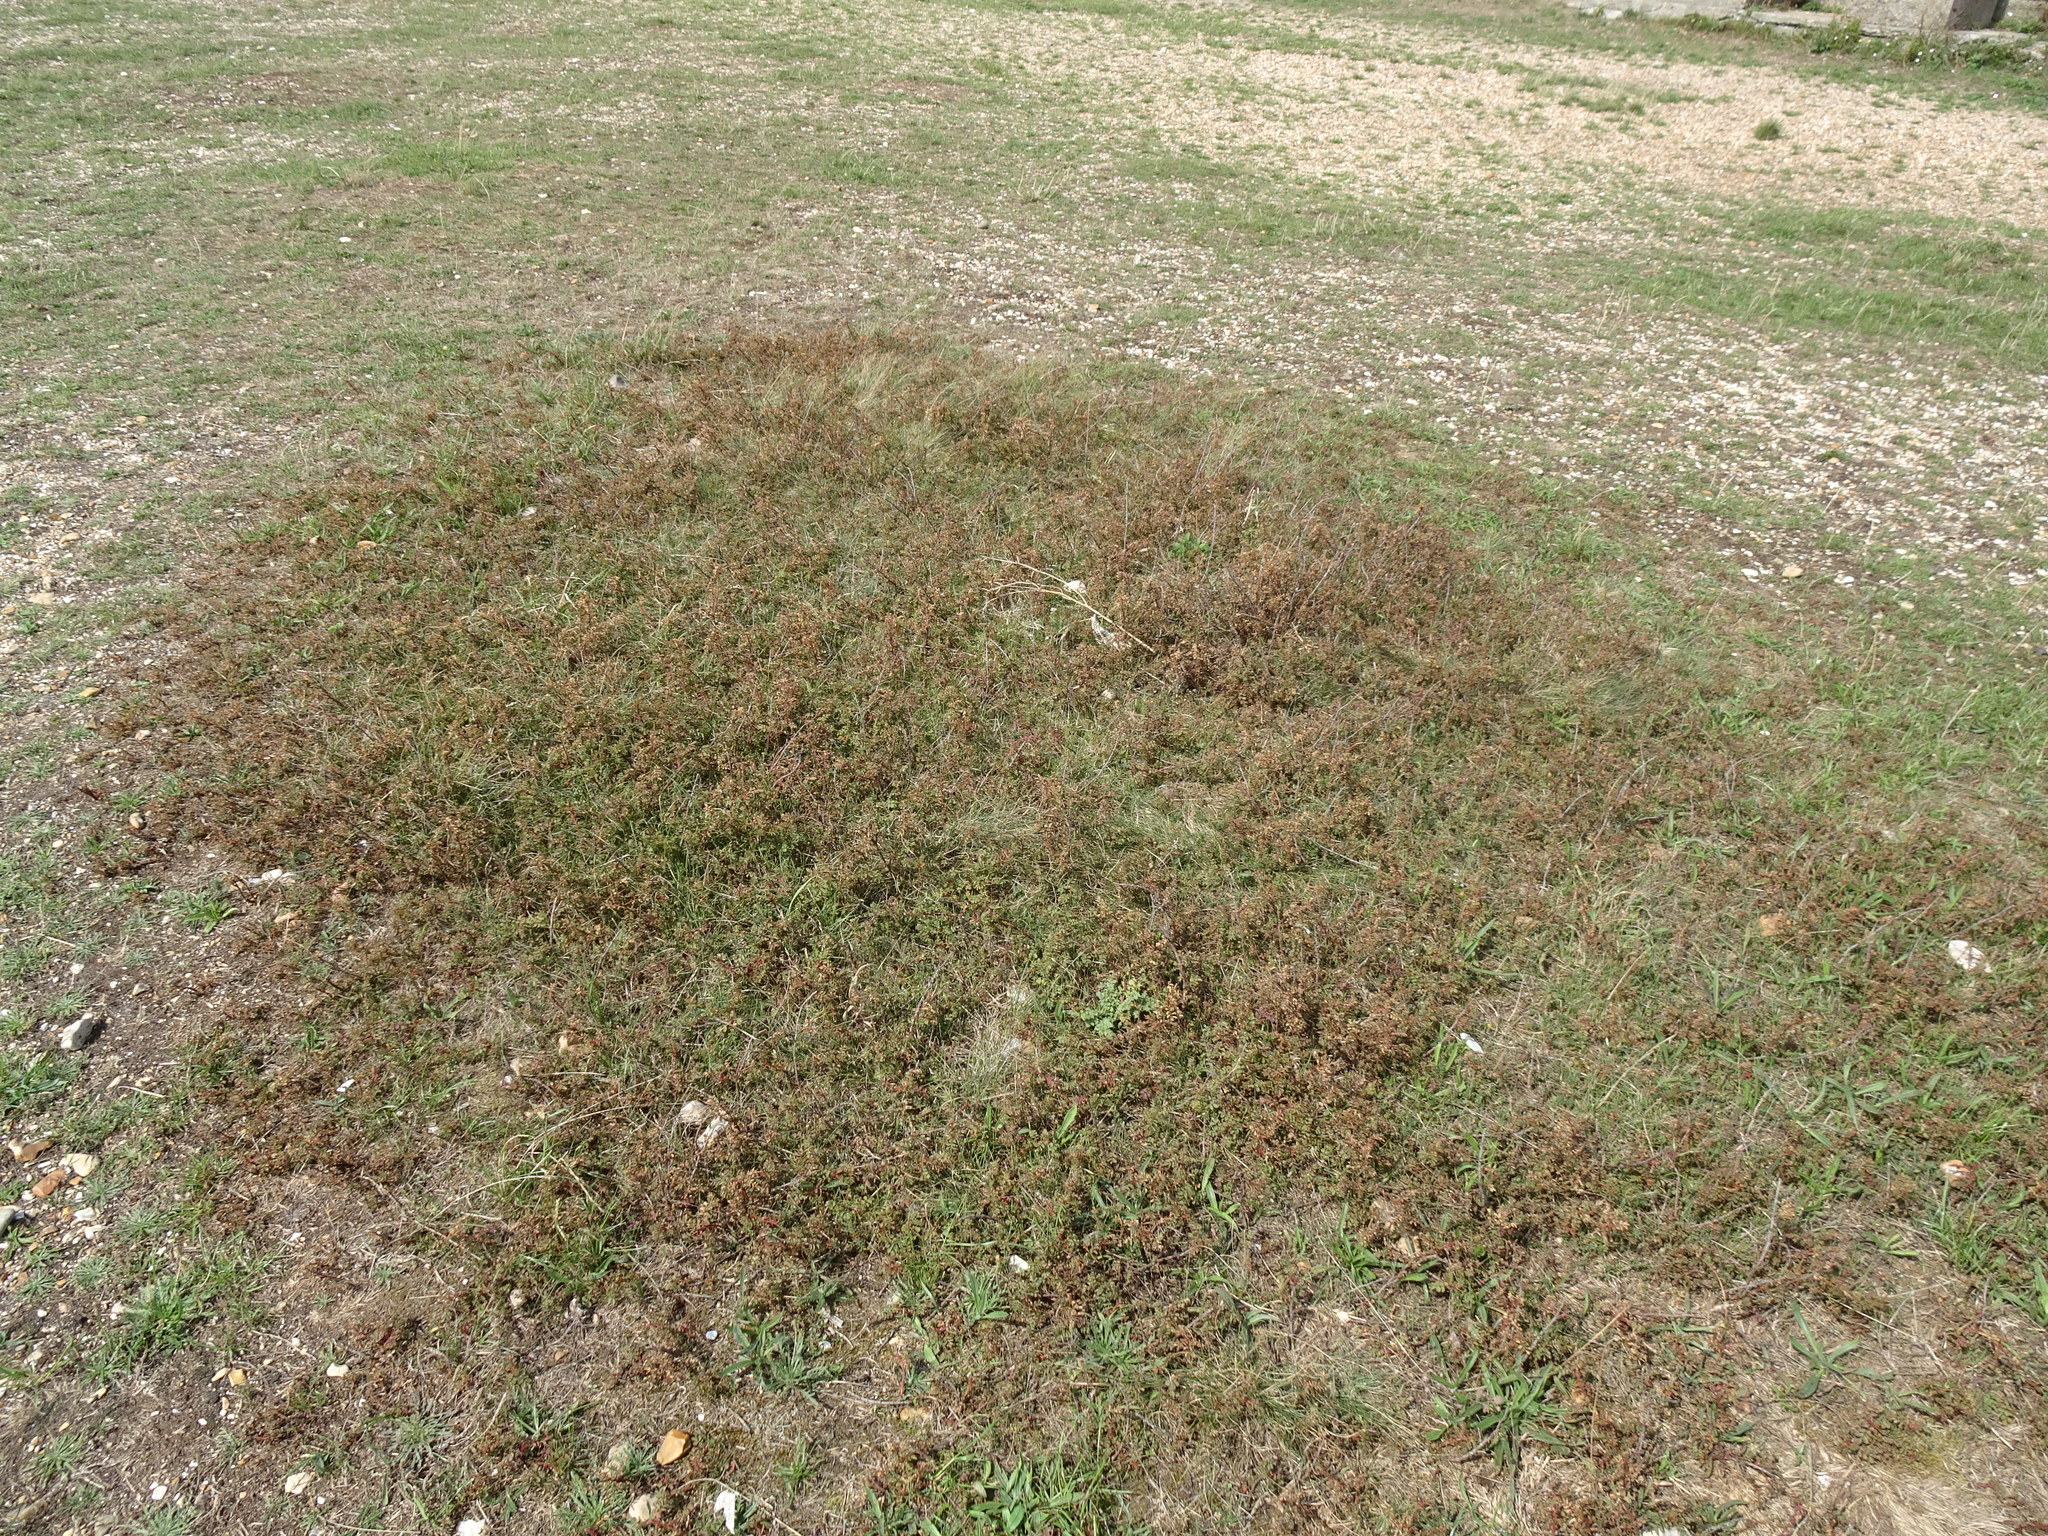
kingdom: Plantae
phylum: Tracheophyta
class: Magnoliopsida
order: Rosales
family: Rosaceae
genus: Rosa
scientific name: Rosa spinosissima
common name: Burnet rose
